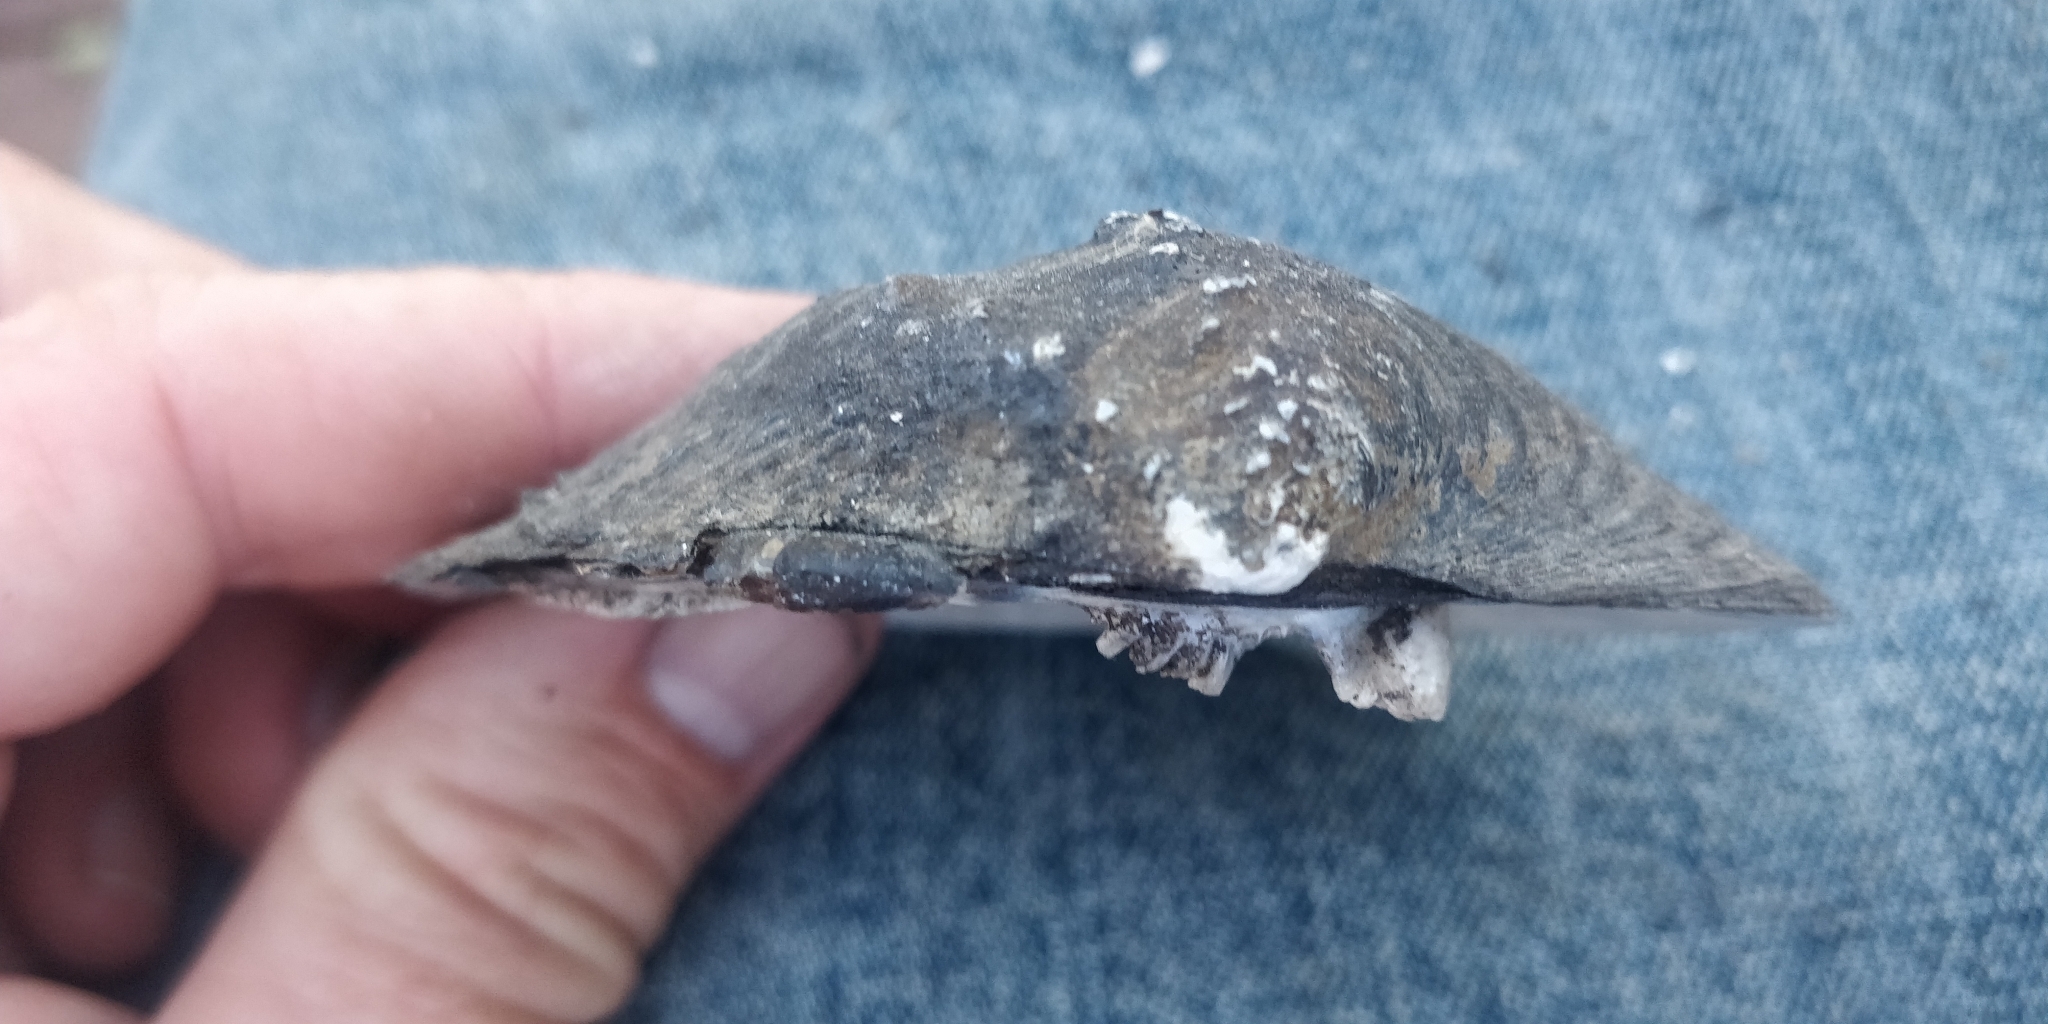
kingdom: Animalia
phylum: Mollusca
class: Bivalvia
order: Unionida
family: Unionidae
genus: Quadrula
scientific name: Quadrula quadrula
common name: Mapleleaf
